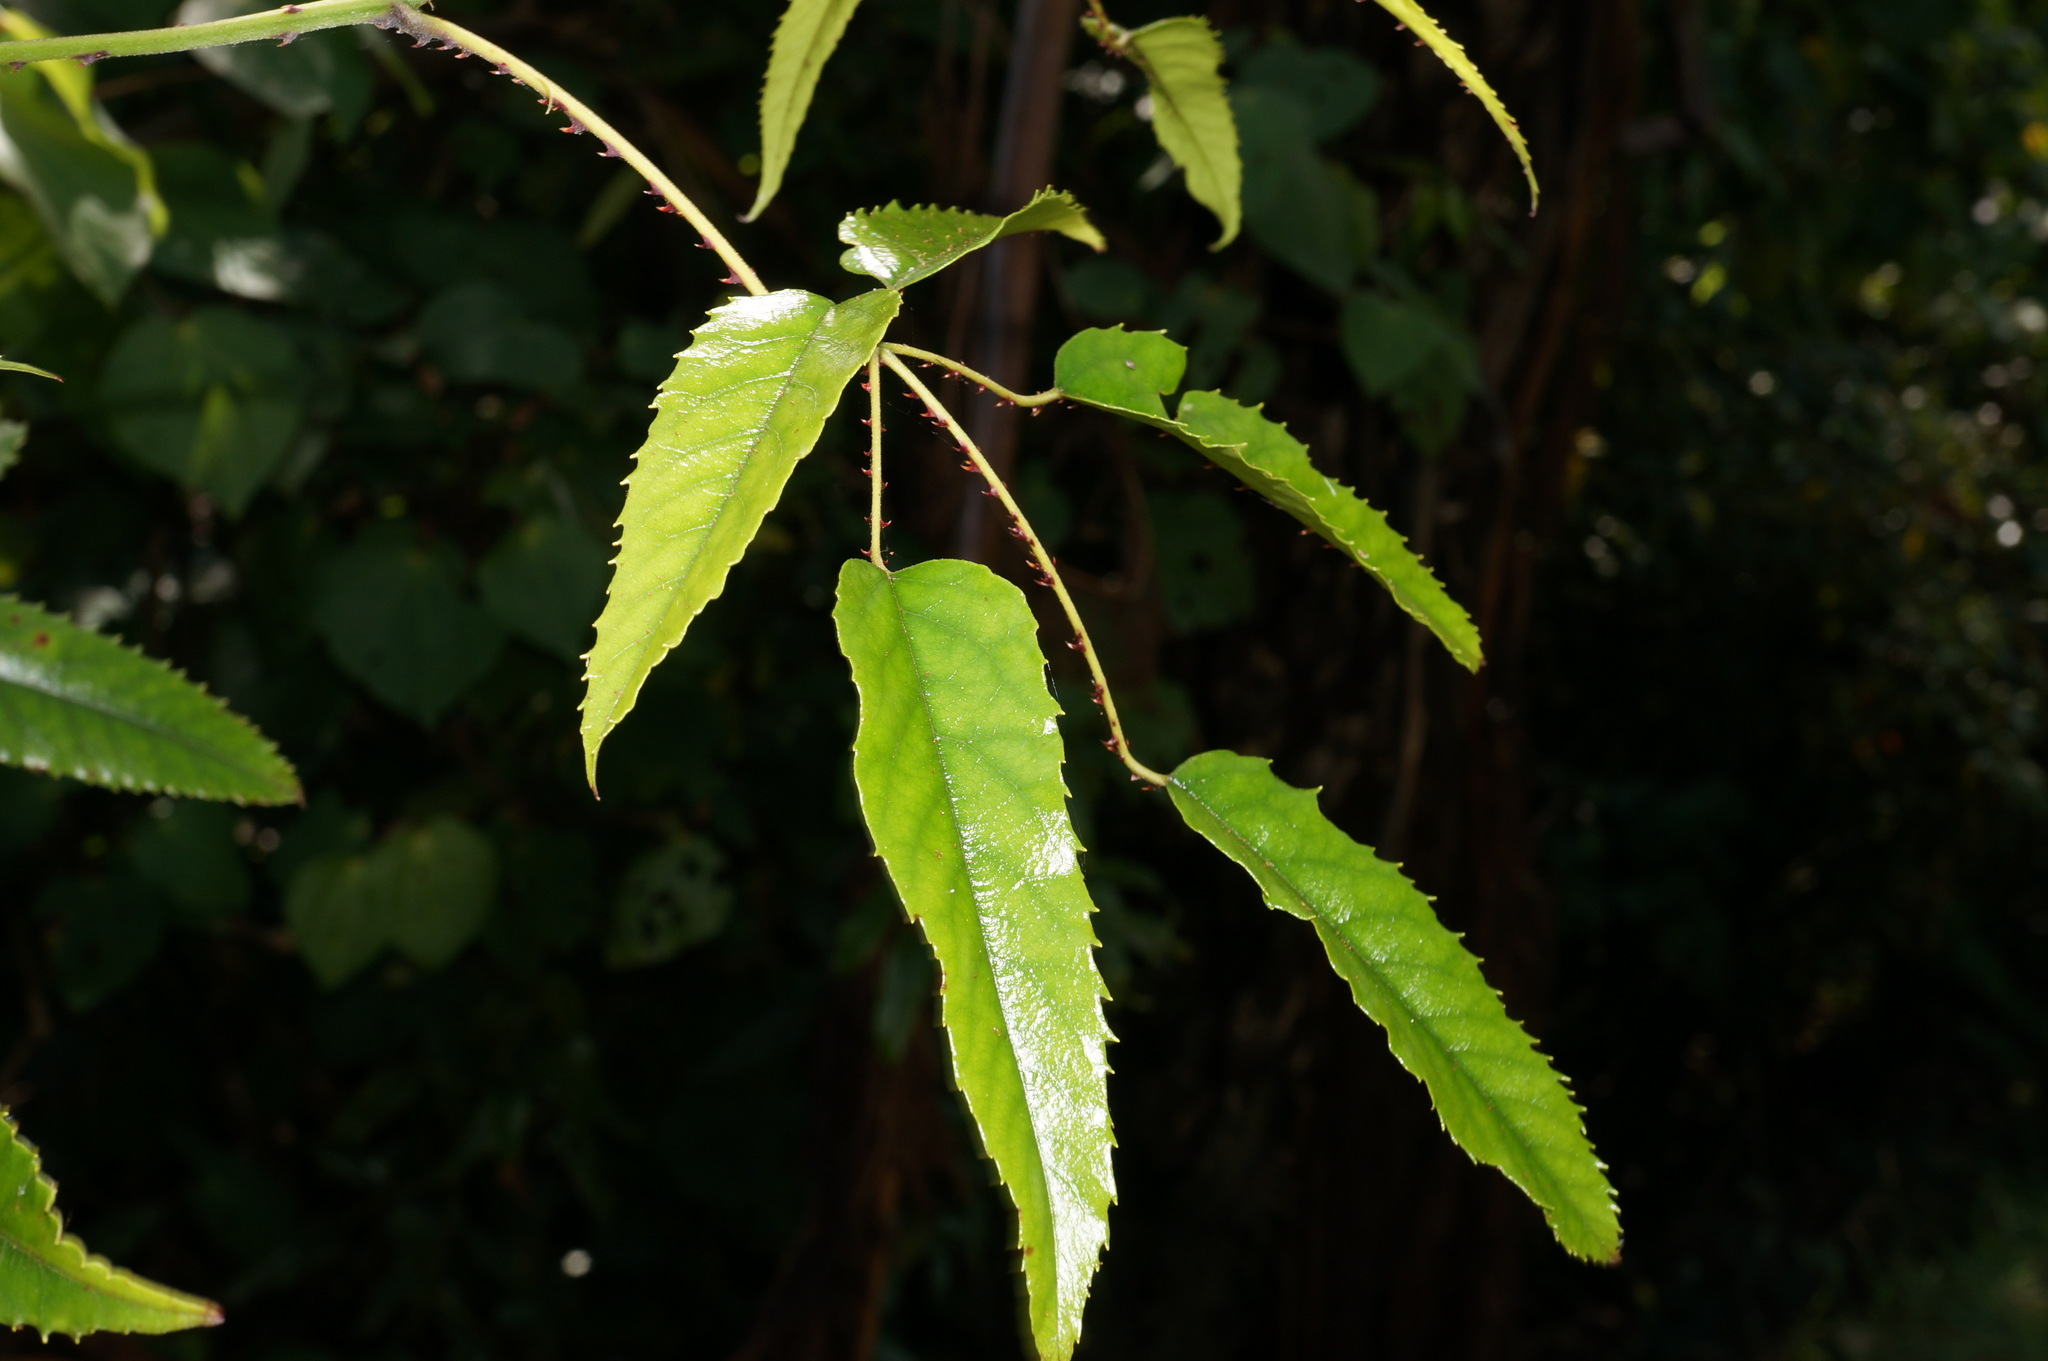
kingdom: Plantae
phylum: Tracheophyta
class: Magnoliopsida
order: Rosales
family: Rosaceae
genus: Rubus
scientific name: Rubus cissoides
